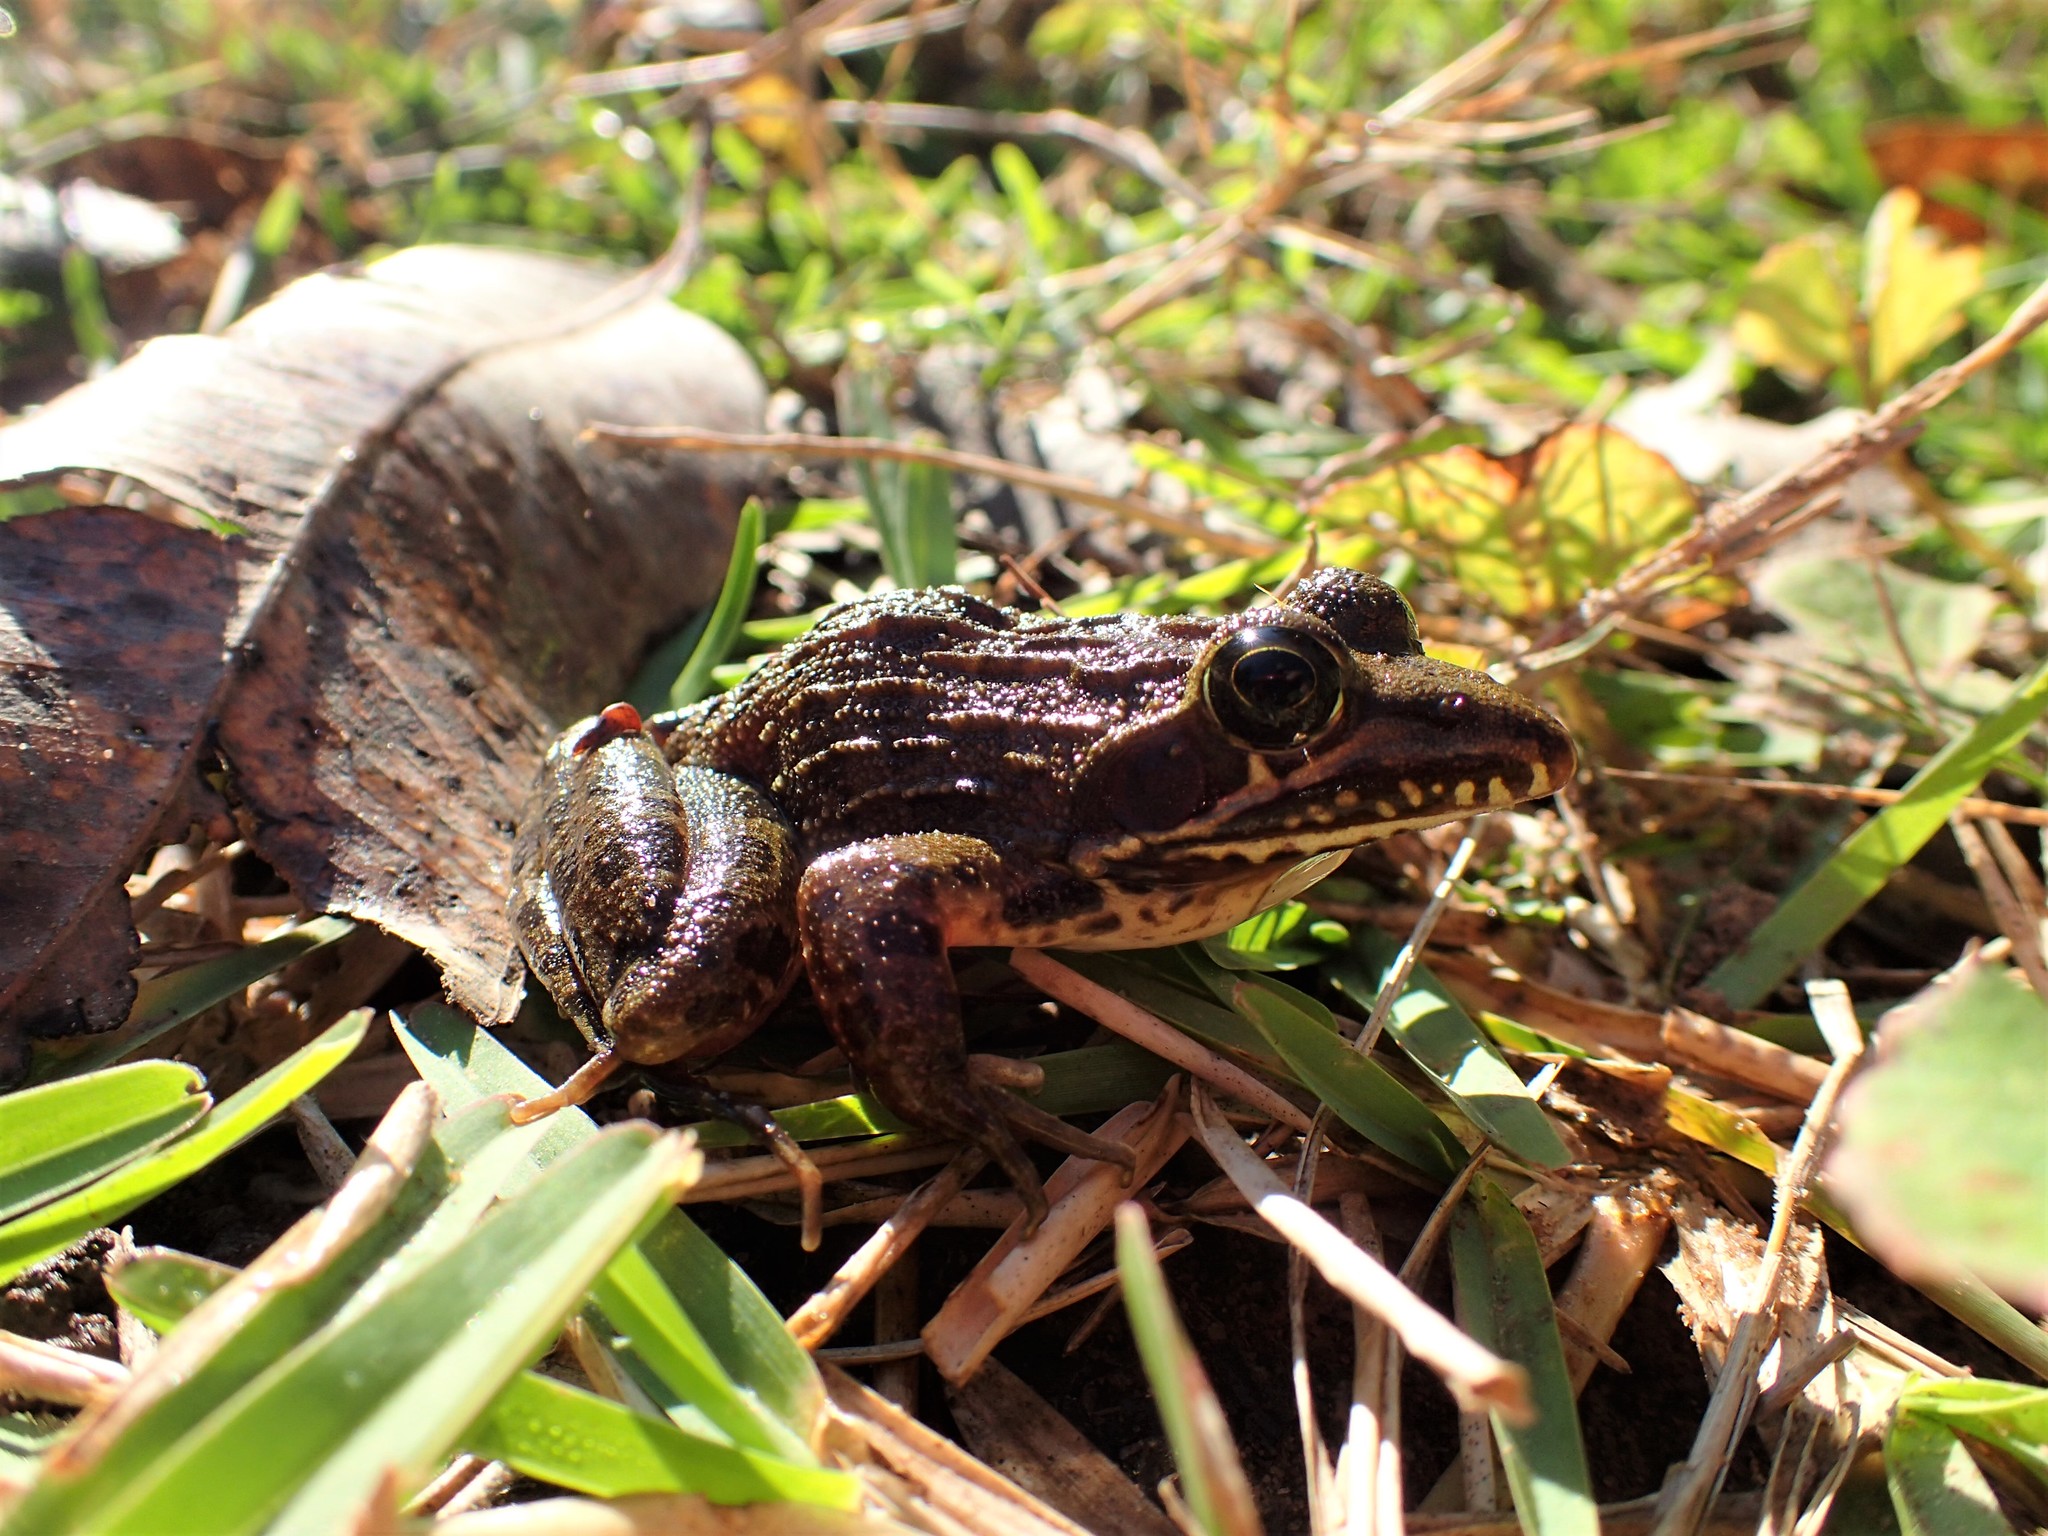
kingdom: Animalia
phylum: Chordata
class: Amphibia
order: Anura
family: Pyxicephalidae
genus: Amietia
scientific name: Amietia delalandii
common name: Delalande's river frog
